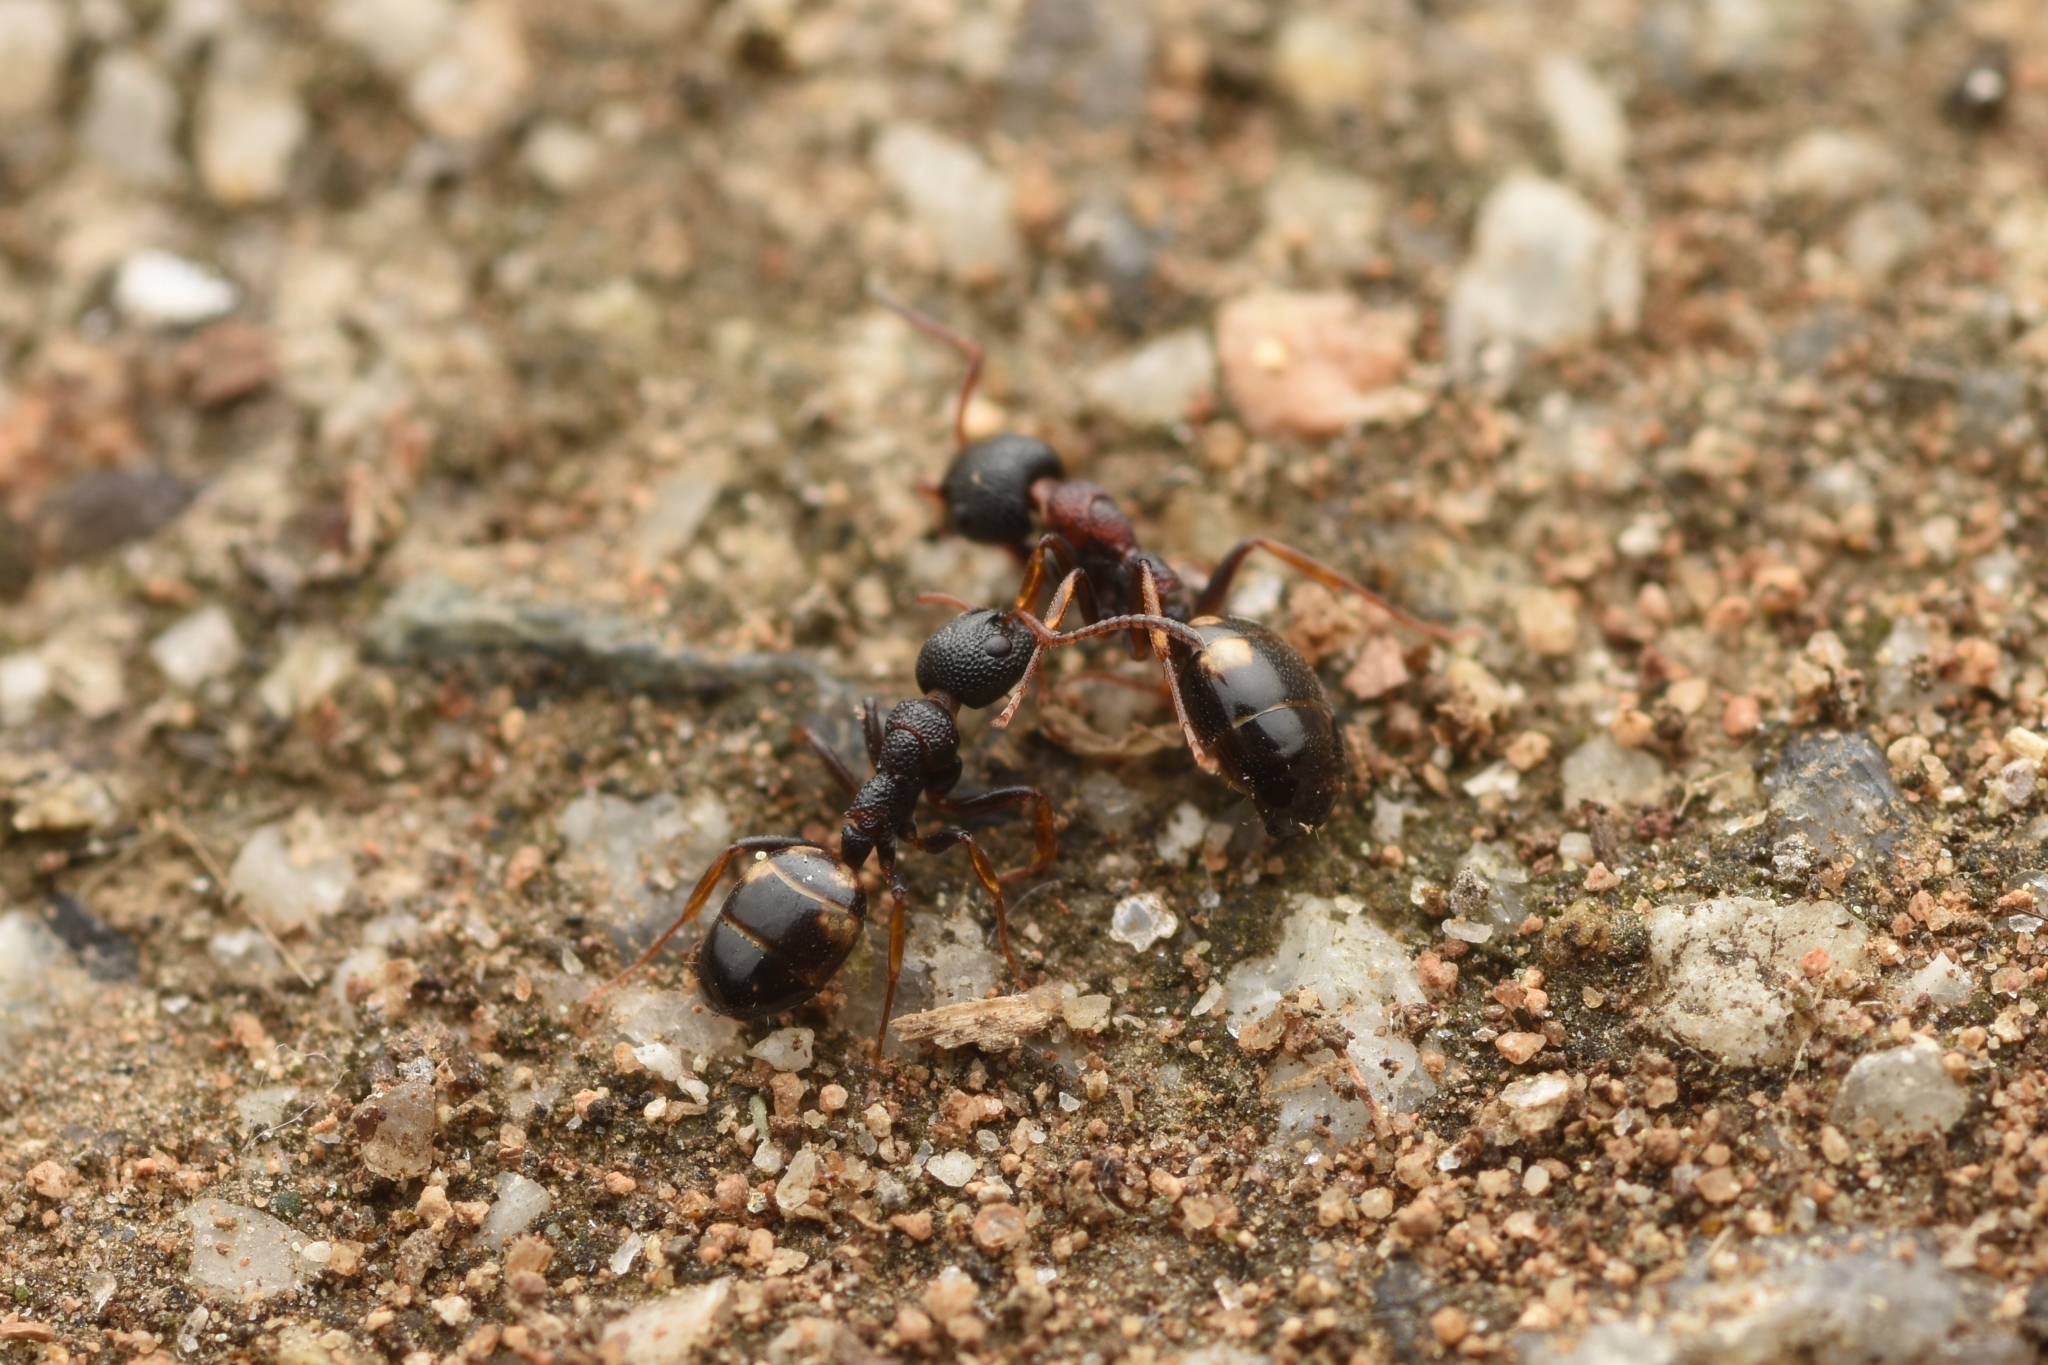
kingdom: Animalia
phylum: Arthropoda
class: Insecta
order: Hymenoptera
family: Formicidae
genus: Dolichoderus
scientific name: Dolichoderus sibiricus
